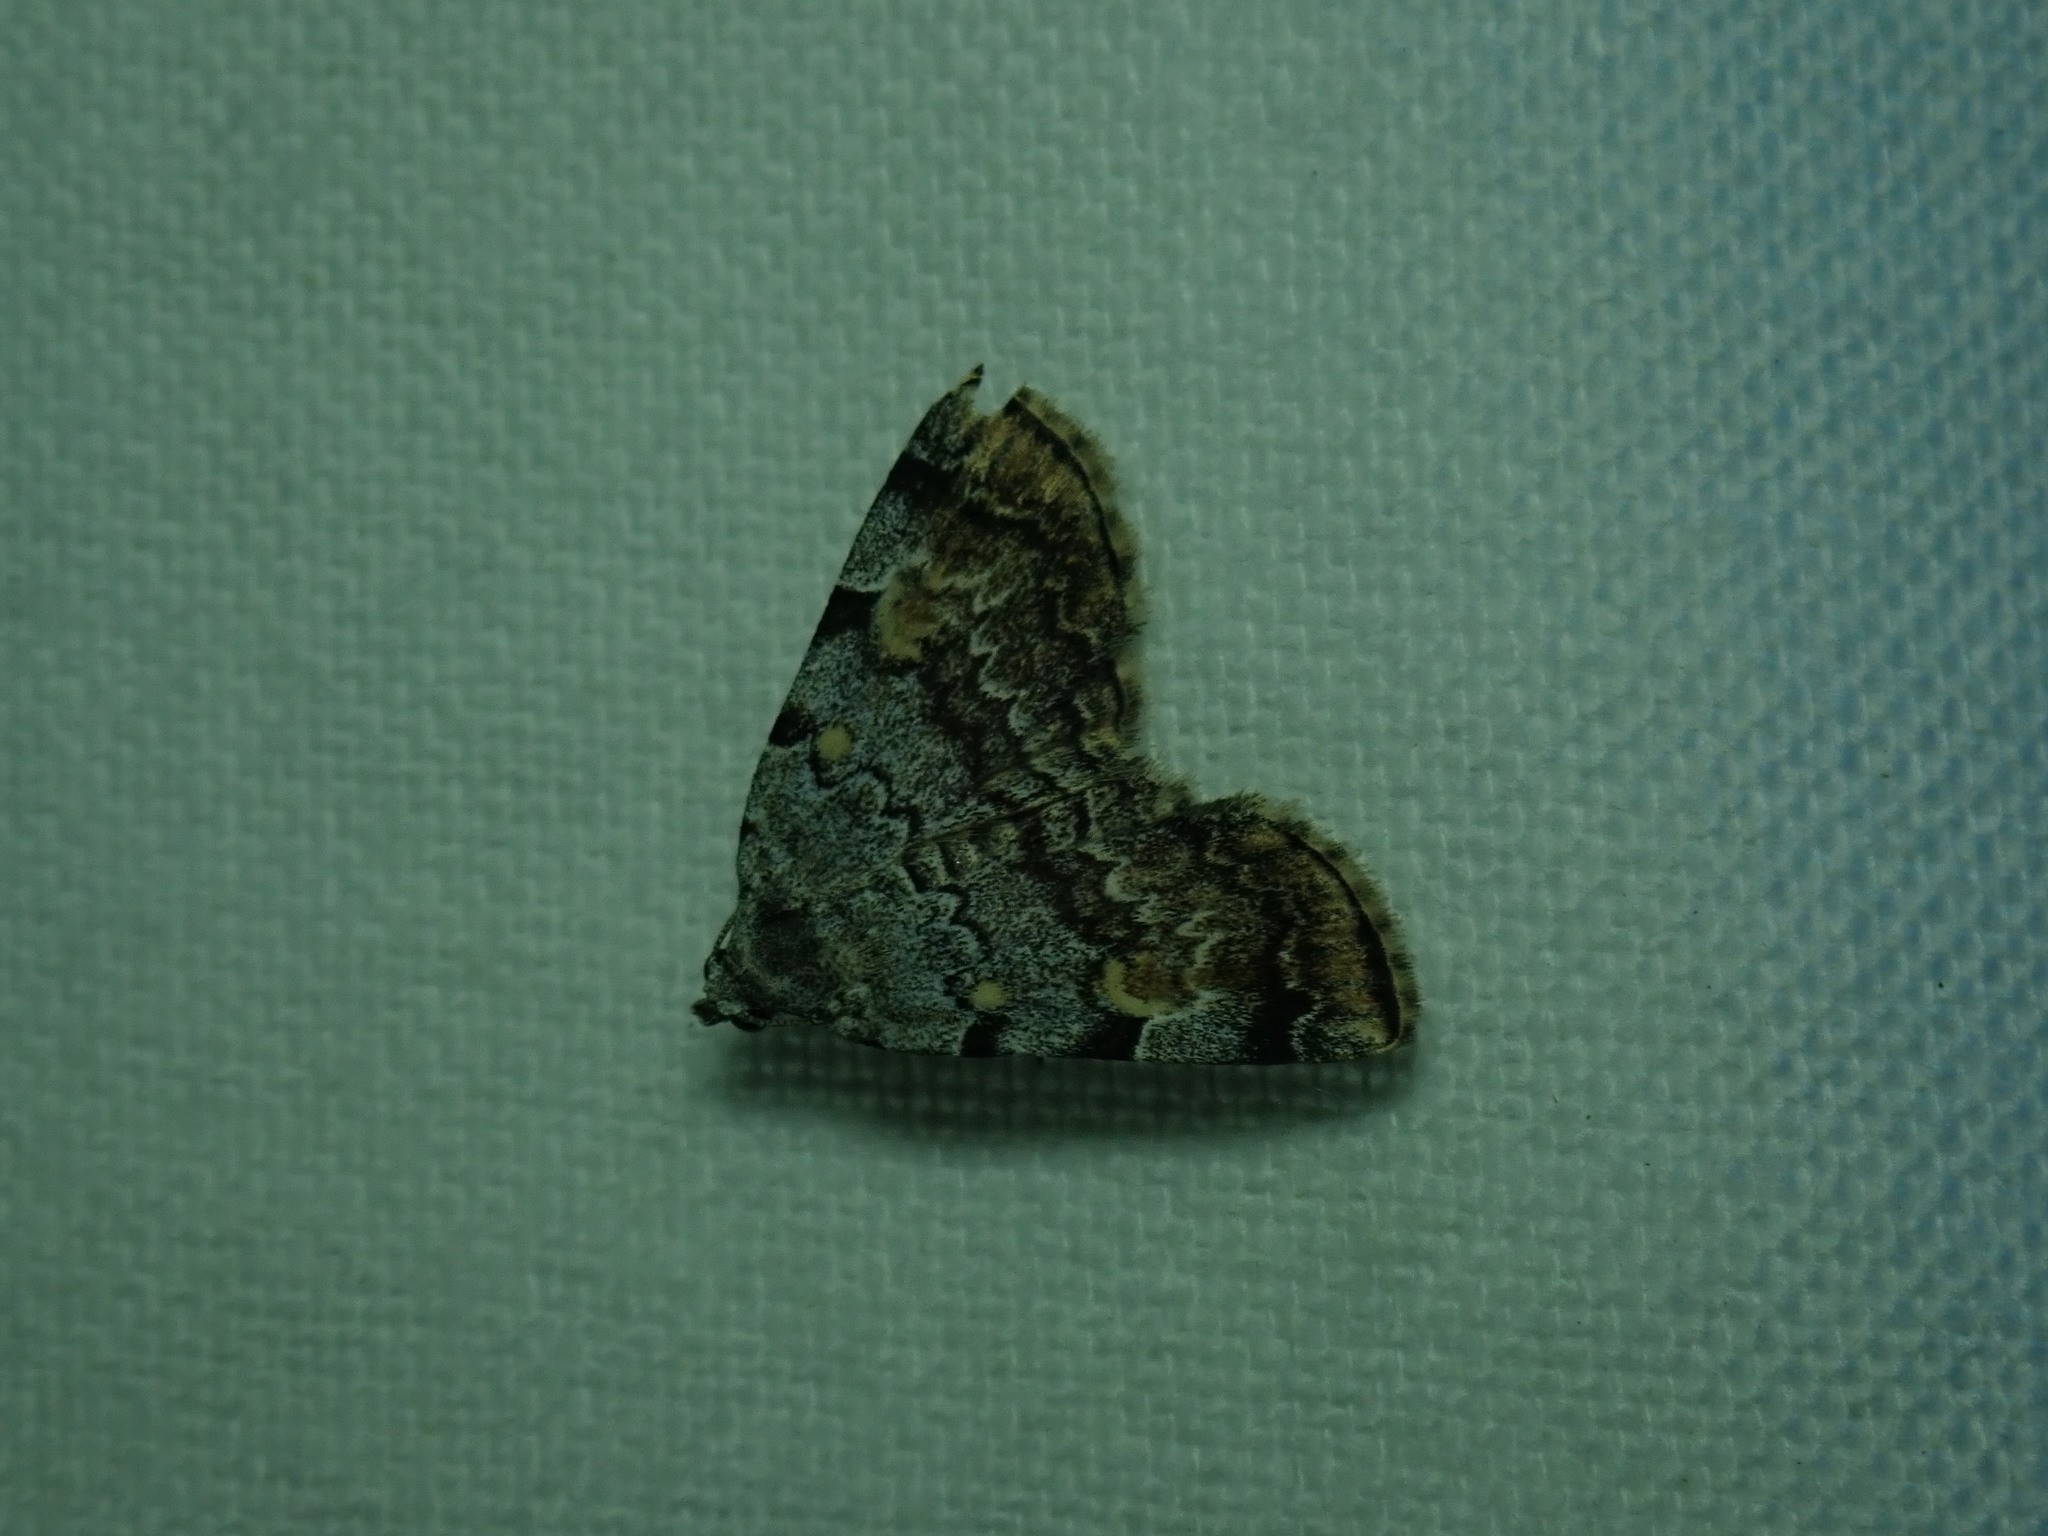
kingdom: Animalia
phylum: Arthropoda
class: Insecta
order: Lepidoptera
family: Erebidae
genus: Idia
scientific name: Idia americalis
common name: American idia moth
